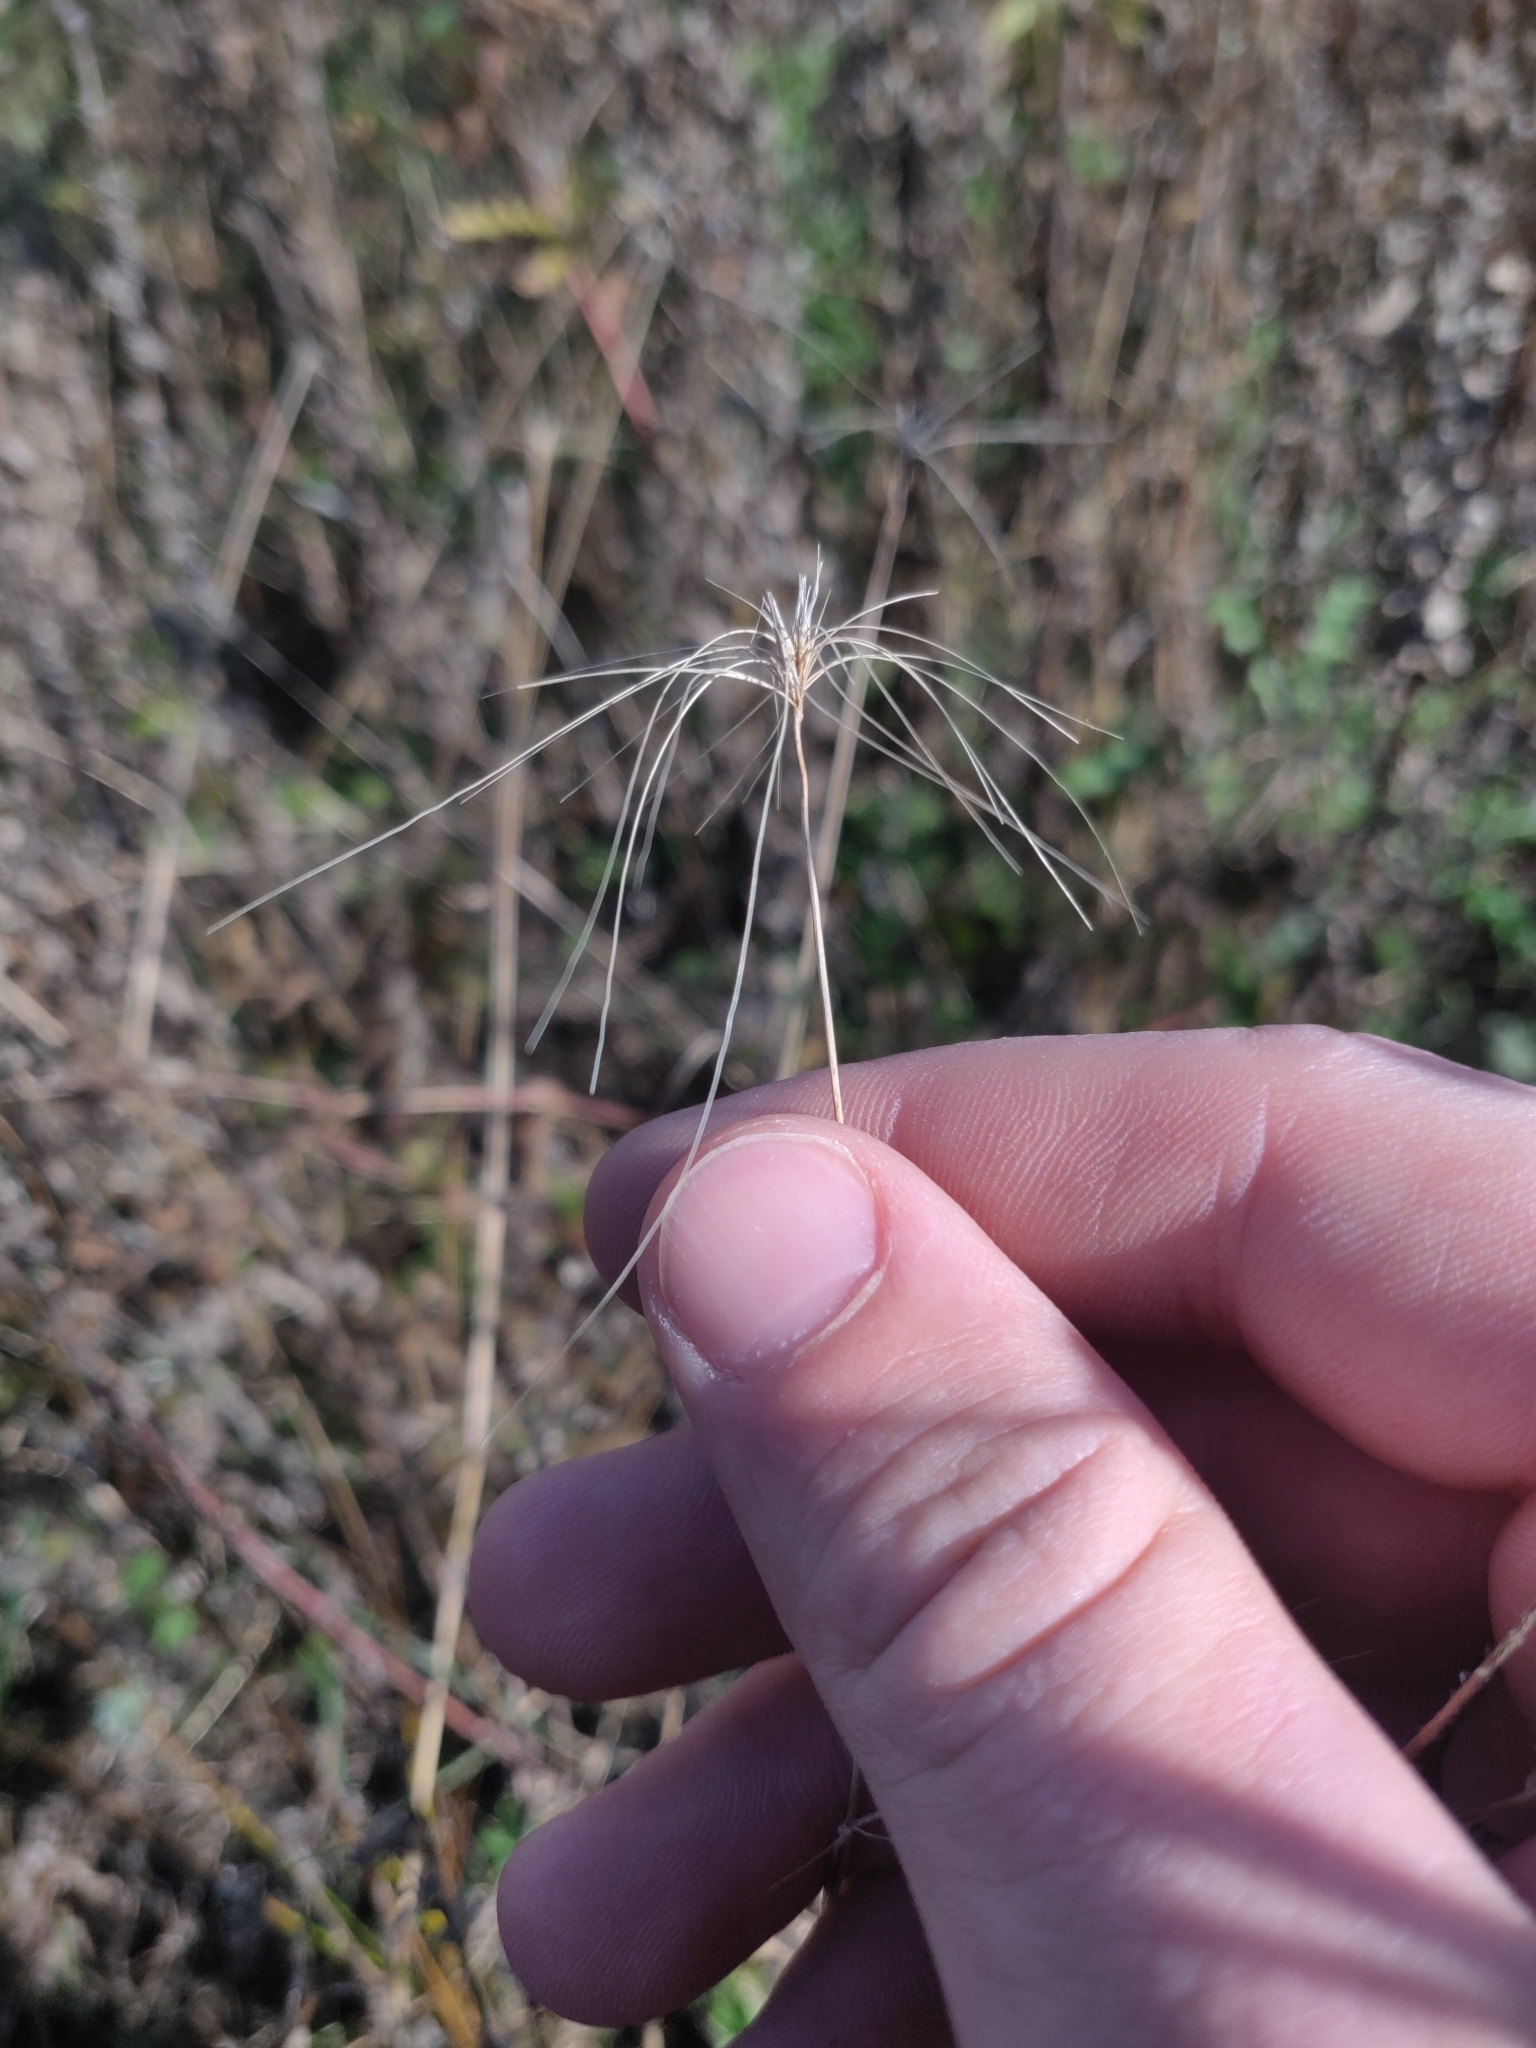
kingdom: Plantae
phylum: Tracheophyta
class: Liliopsida
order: Poales
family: Poaceae
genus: Hordeum
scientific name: Hordeum jubatum
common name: Foxtail barley
